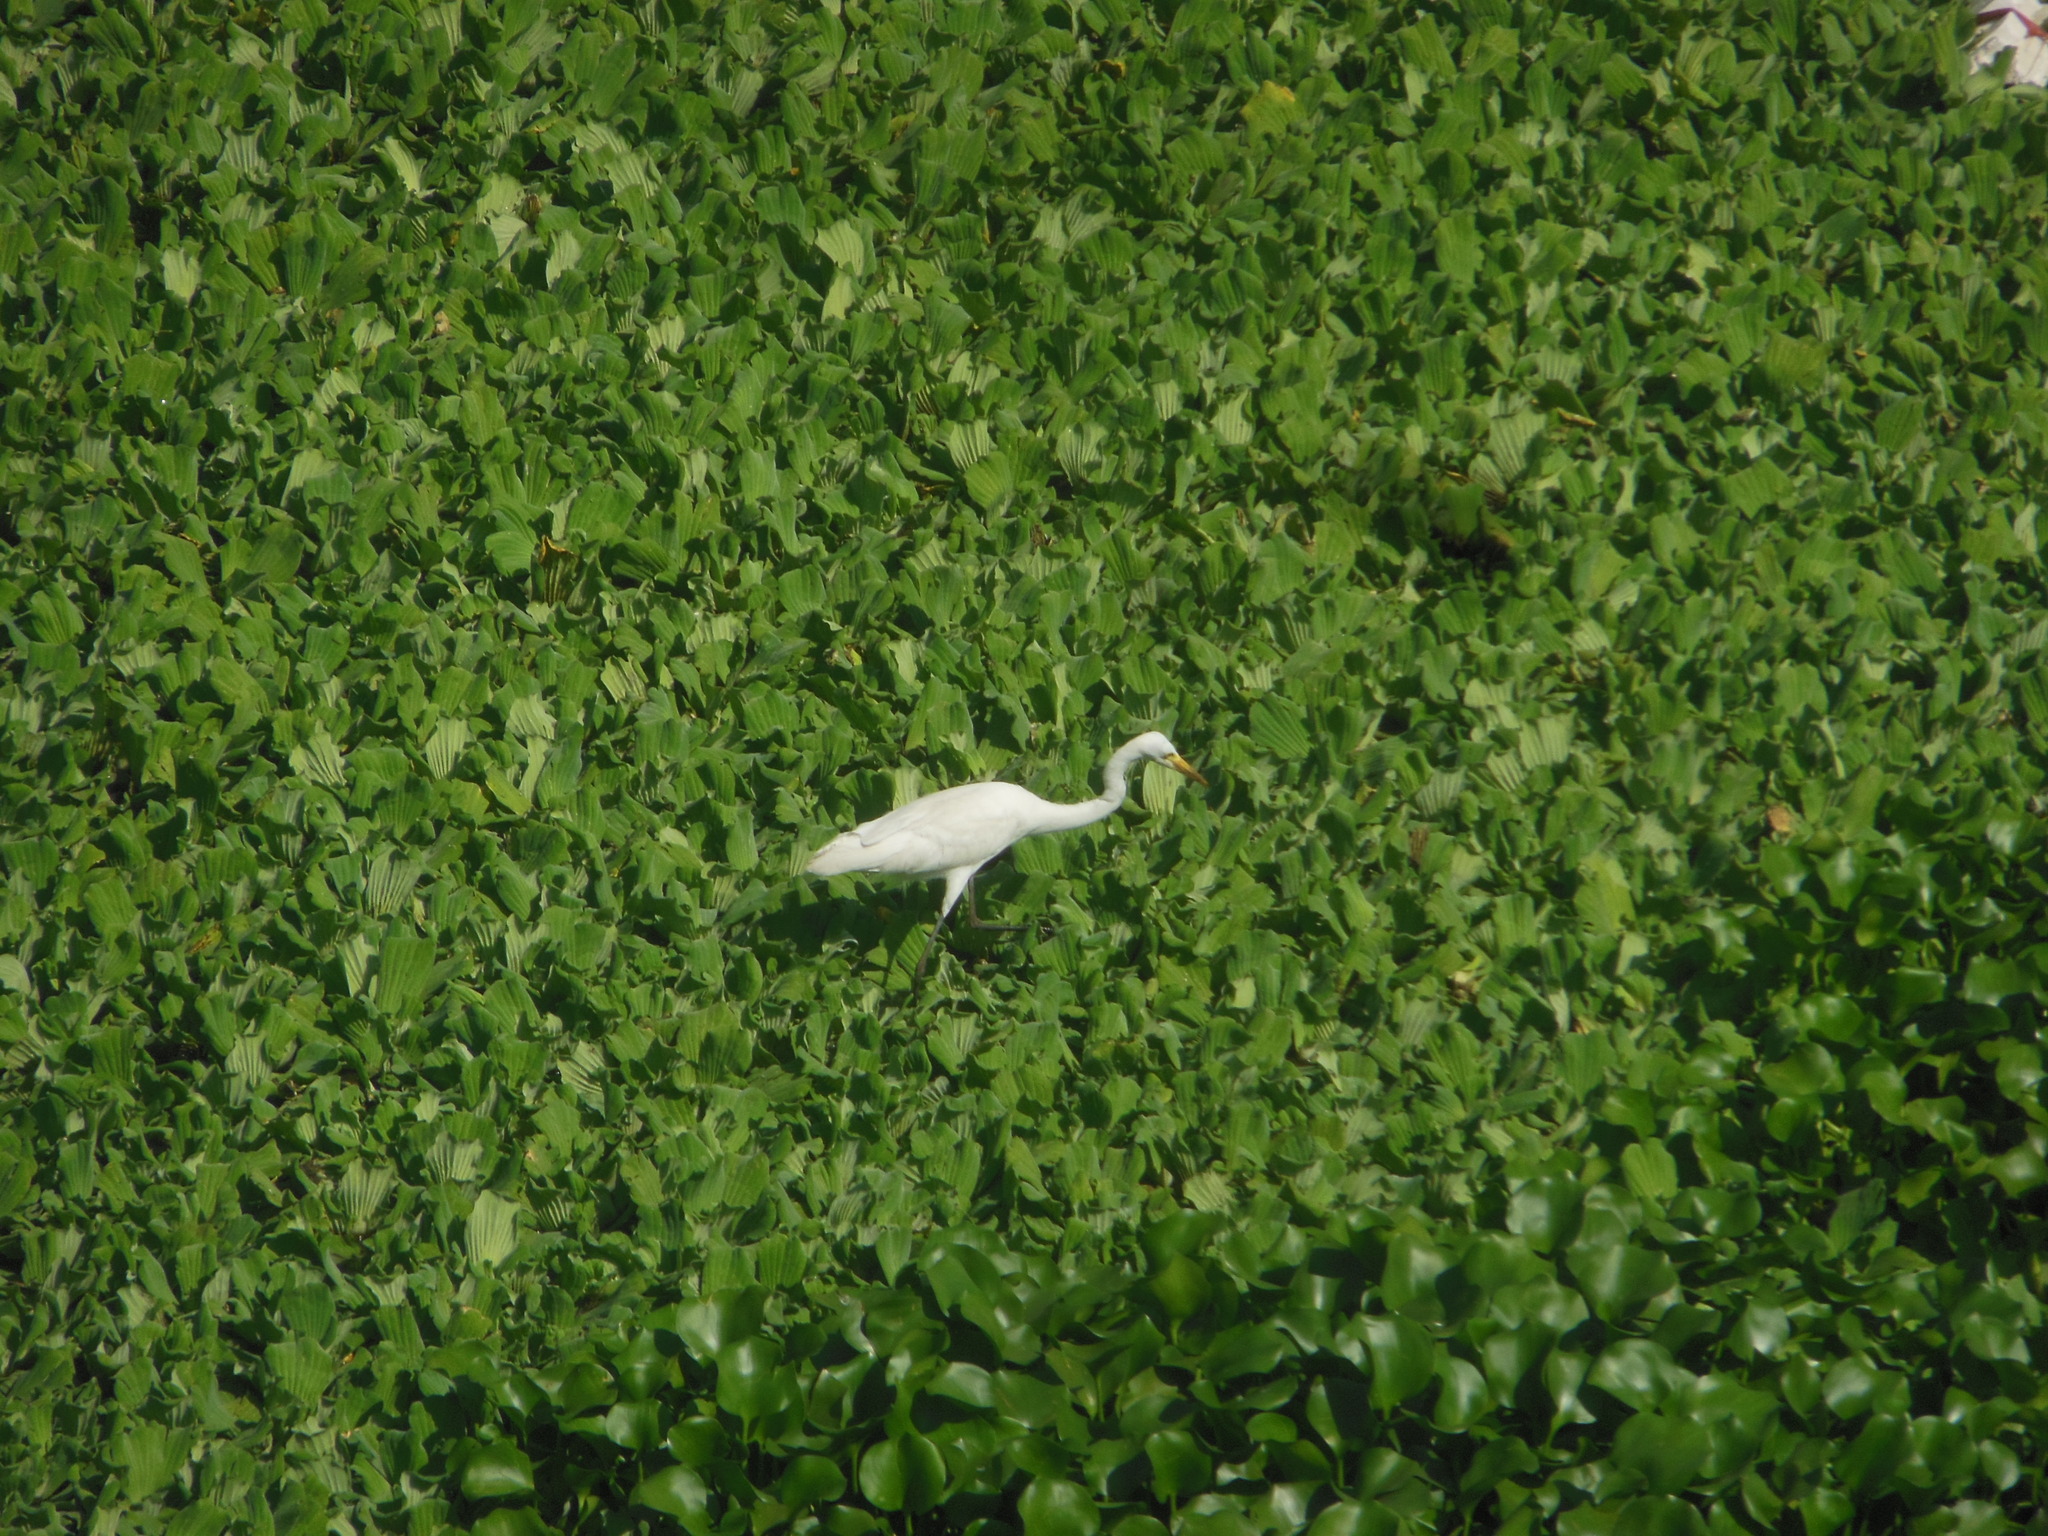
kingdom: Animalia
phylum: Chordata
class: Aves
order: Pelecaniformes
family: Ardeidae
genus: Egretta
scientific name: Egretta intermedia
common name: Intermediate egret
